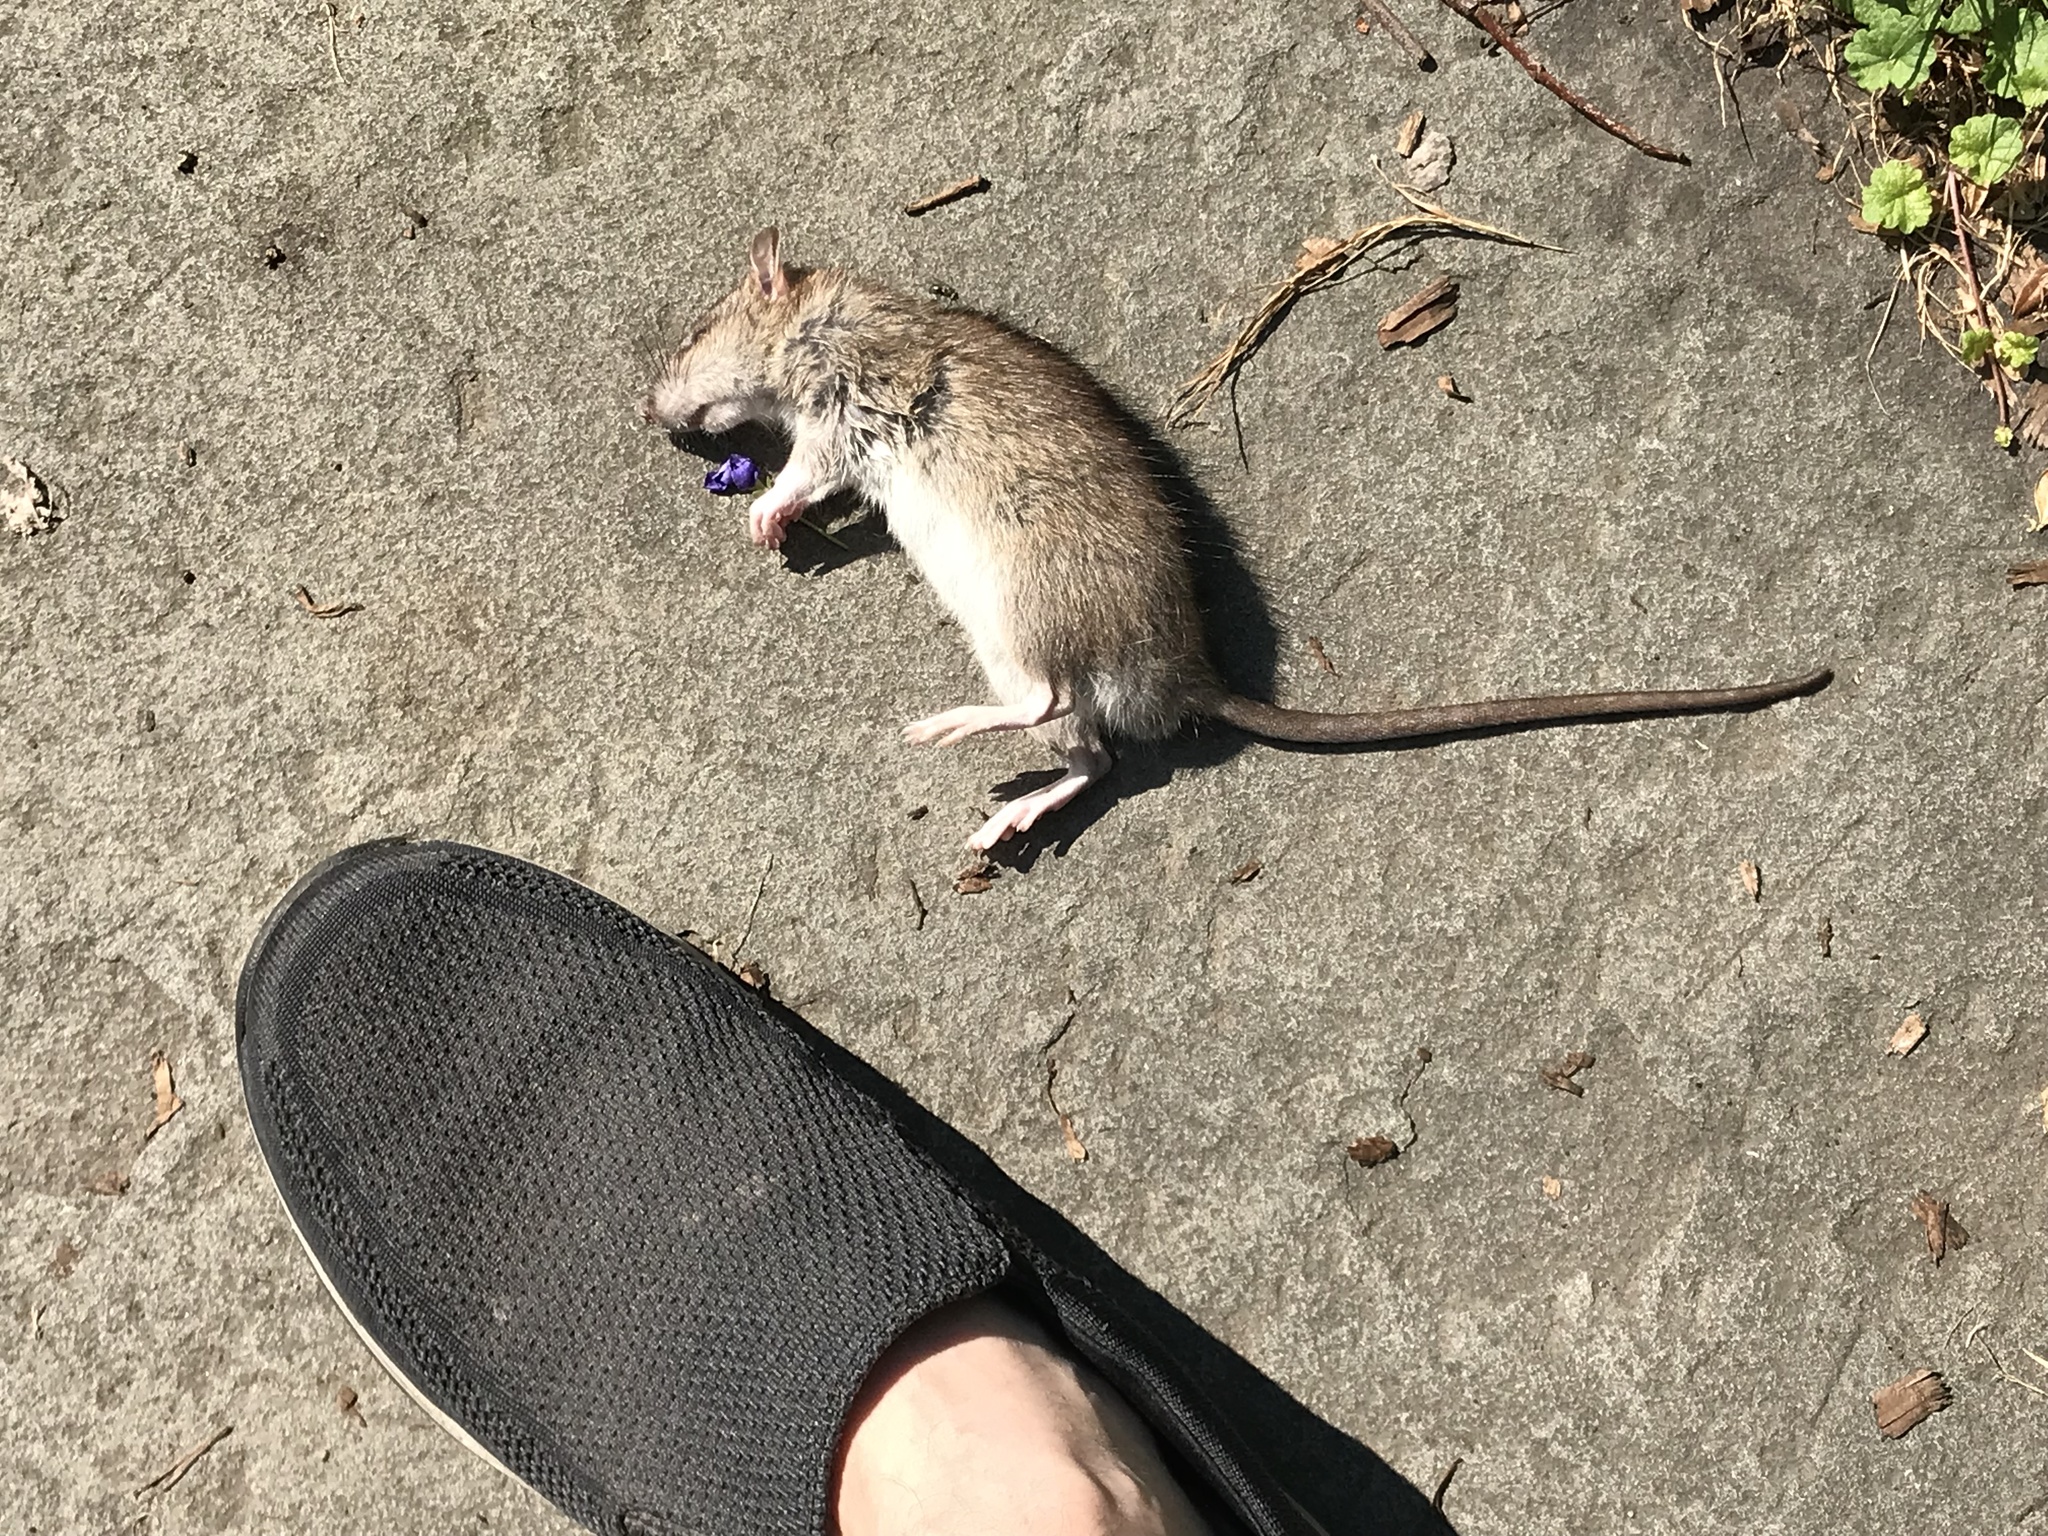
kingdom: Animalia
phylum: Chordata
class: Mammalia
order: Rodentia
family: Muridae
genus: Rattus
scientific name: Rattus norvegicus
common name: Brown rat
